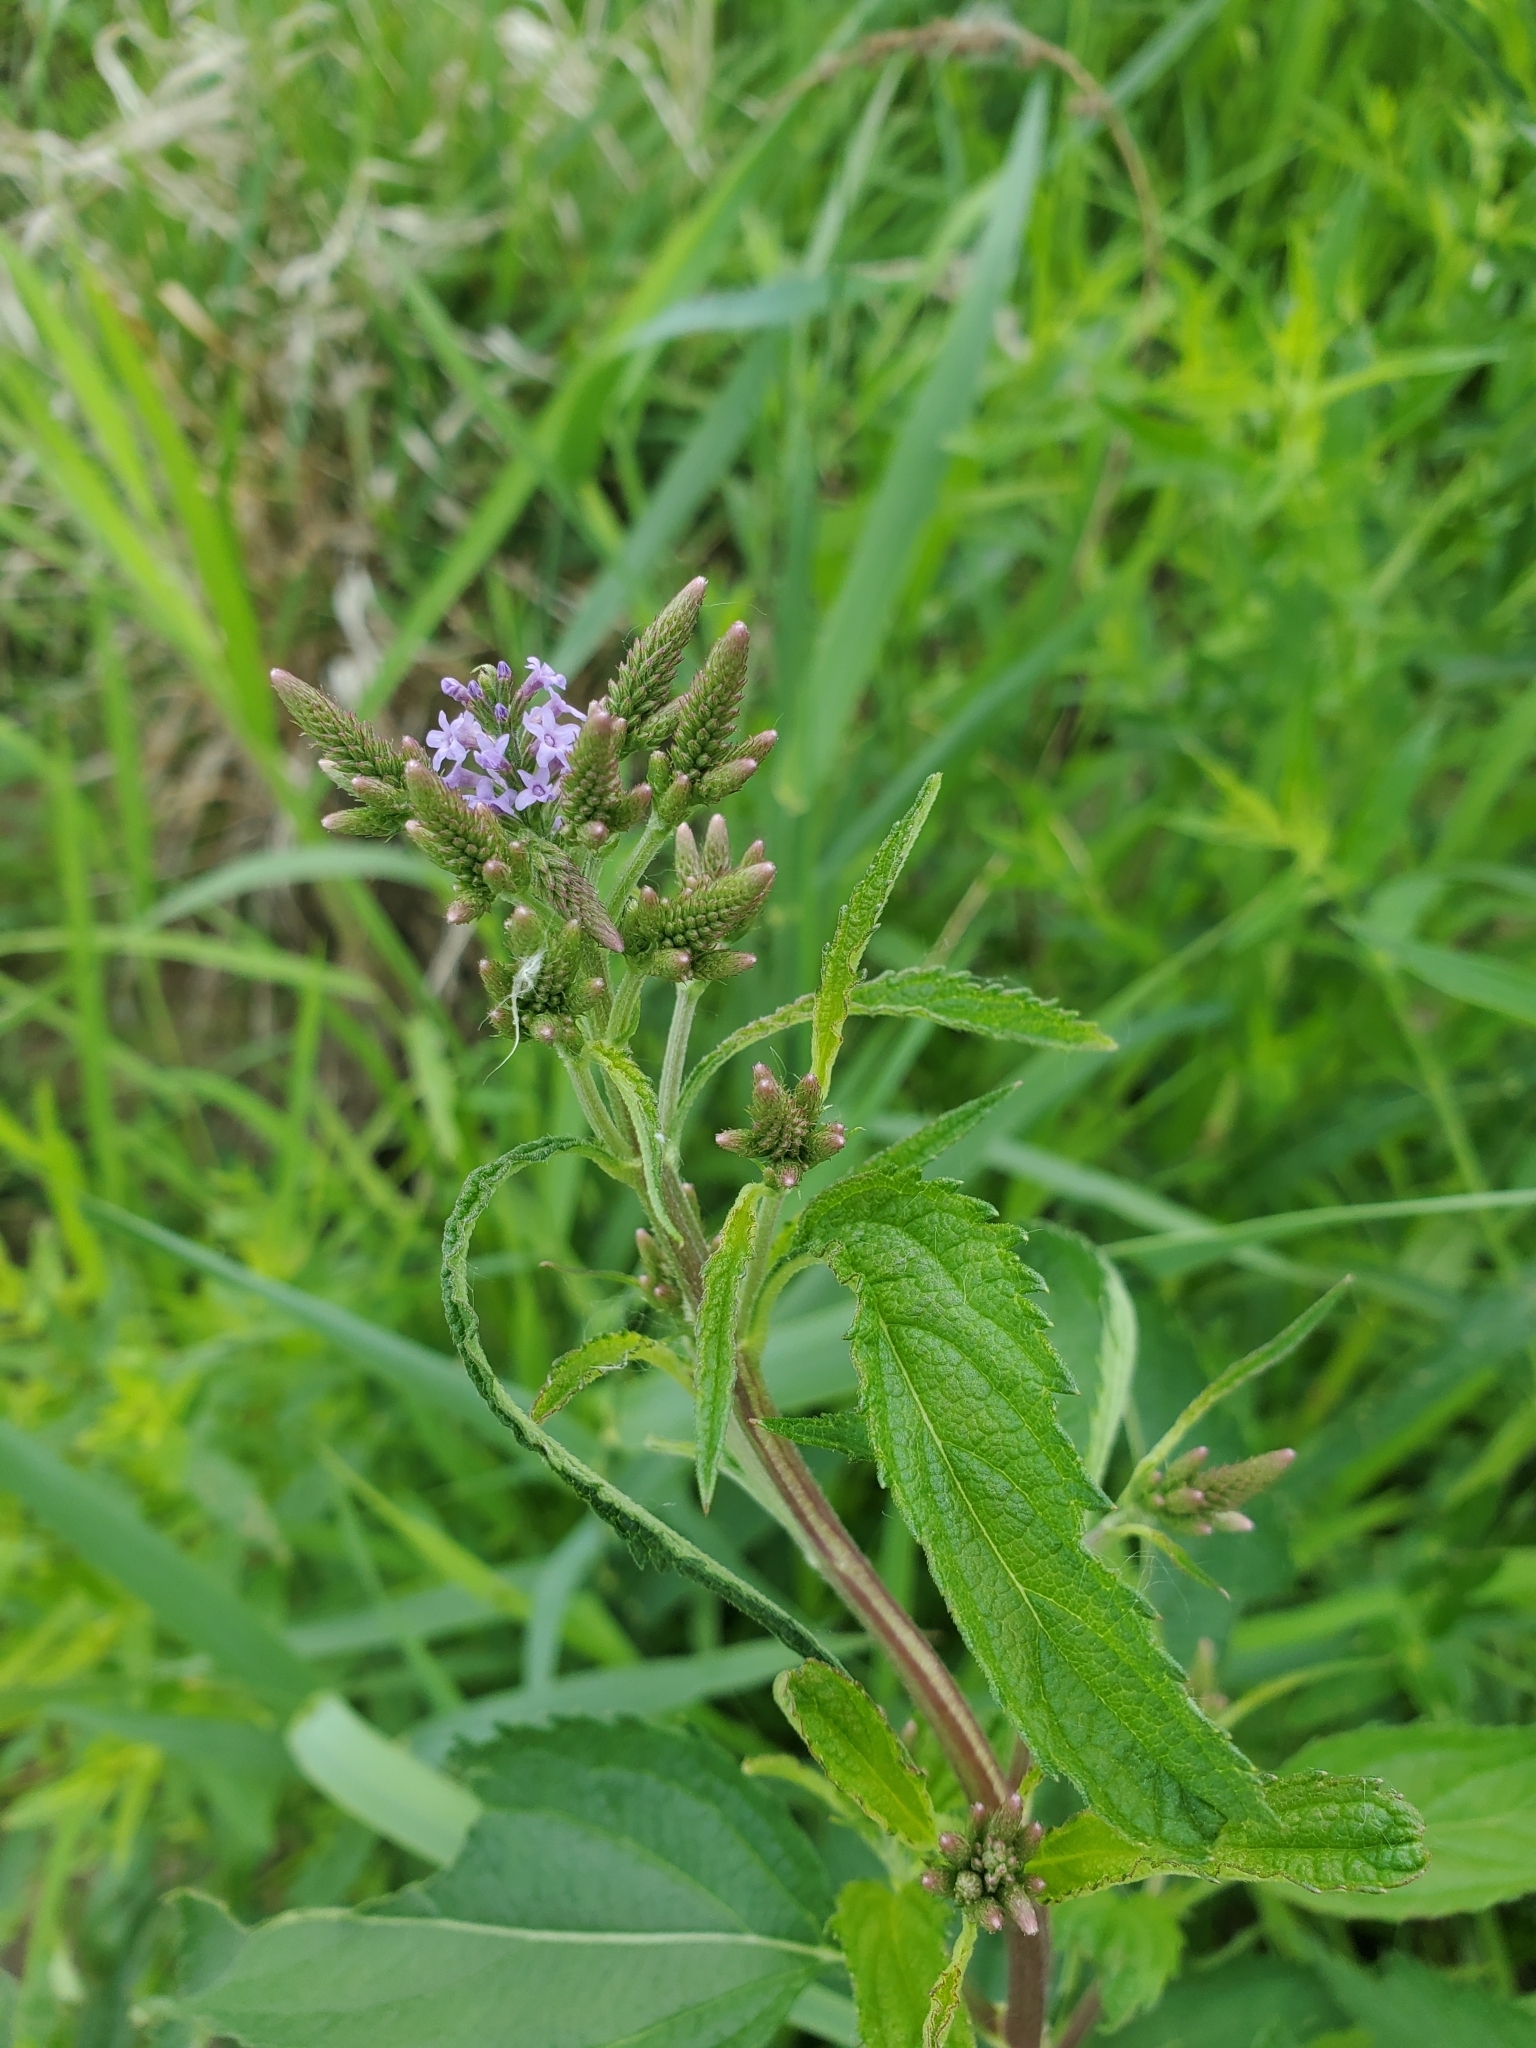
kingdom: Plantae
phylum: Tracheophyta
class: Magnoliopsida
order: Lamiales
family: Verbenaceae
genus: Verbena
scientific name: Verbena hastata
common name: American blue vervain
